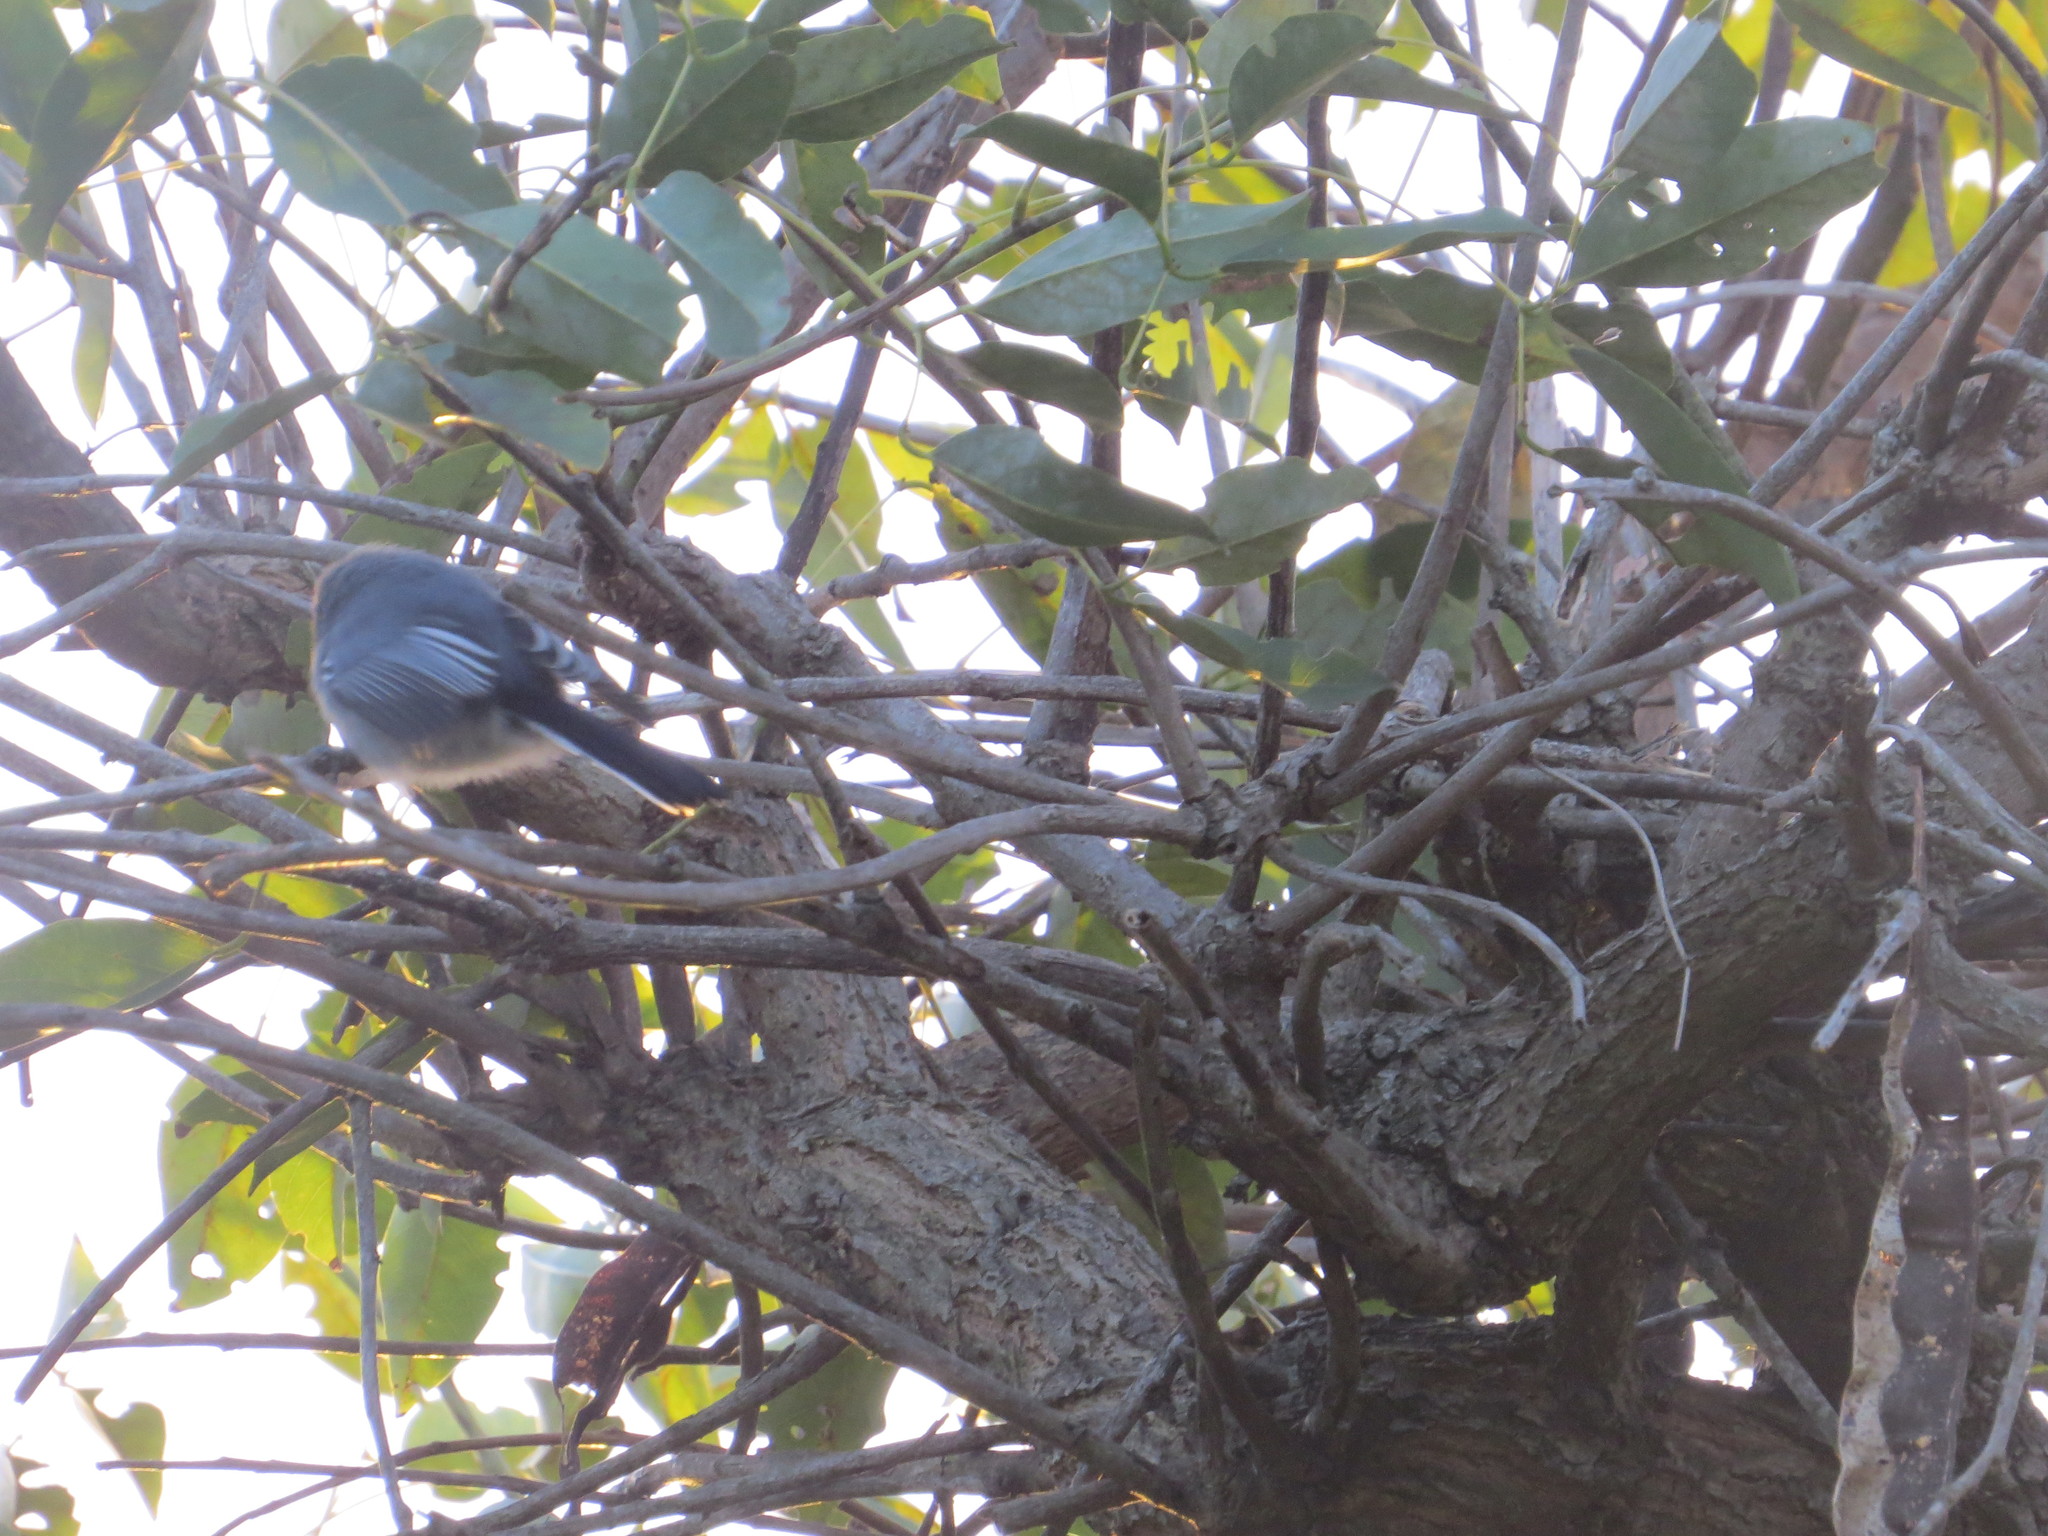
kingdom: Animalia
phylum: Chordata
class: Aves
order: Passeriformes
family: Polioptilidae
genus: Polioptila
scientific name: Polioptila dumicola
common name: Masked gnatcatcher
